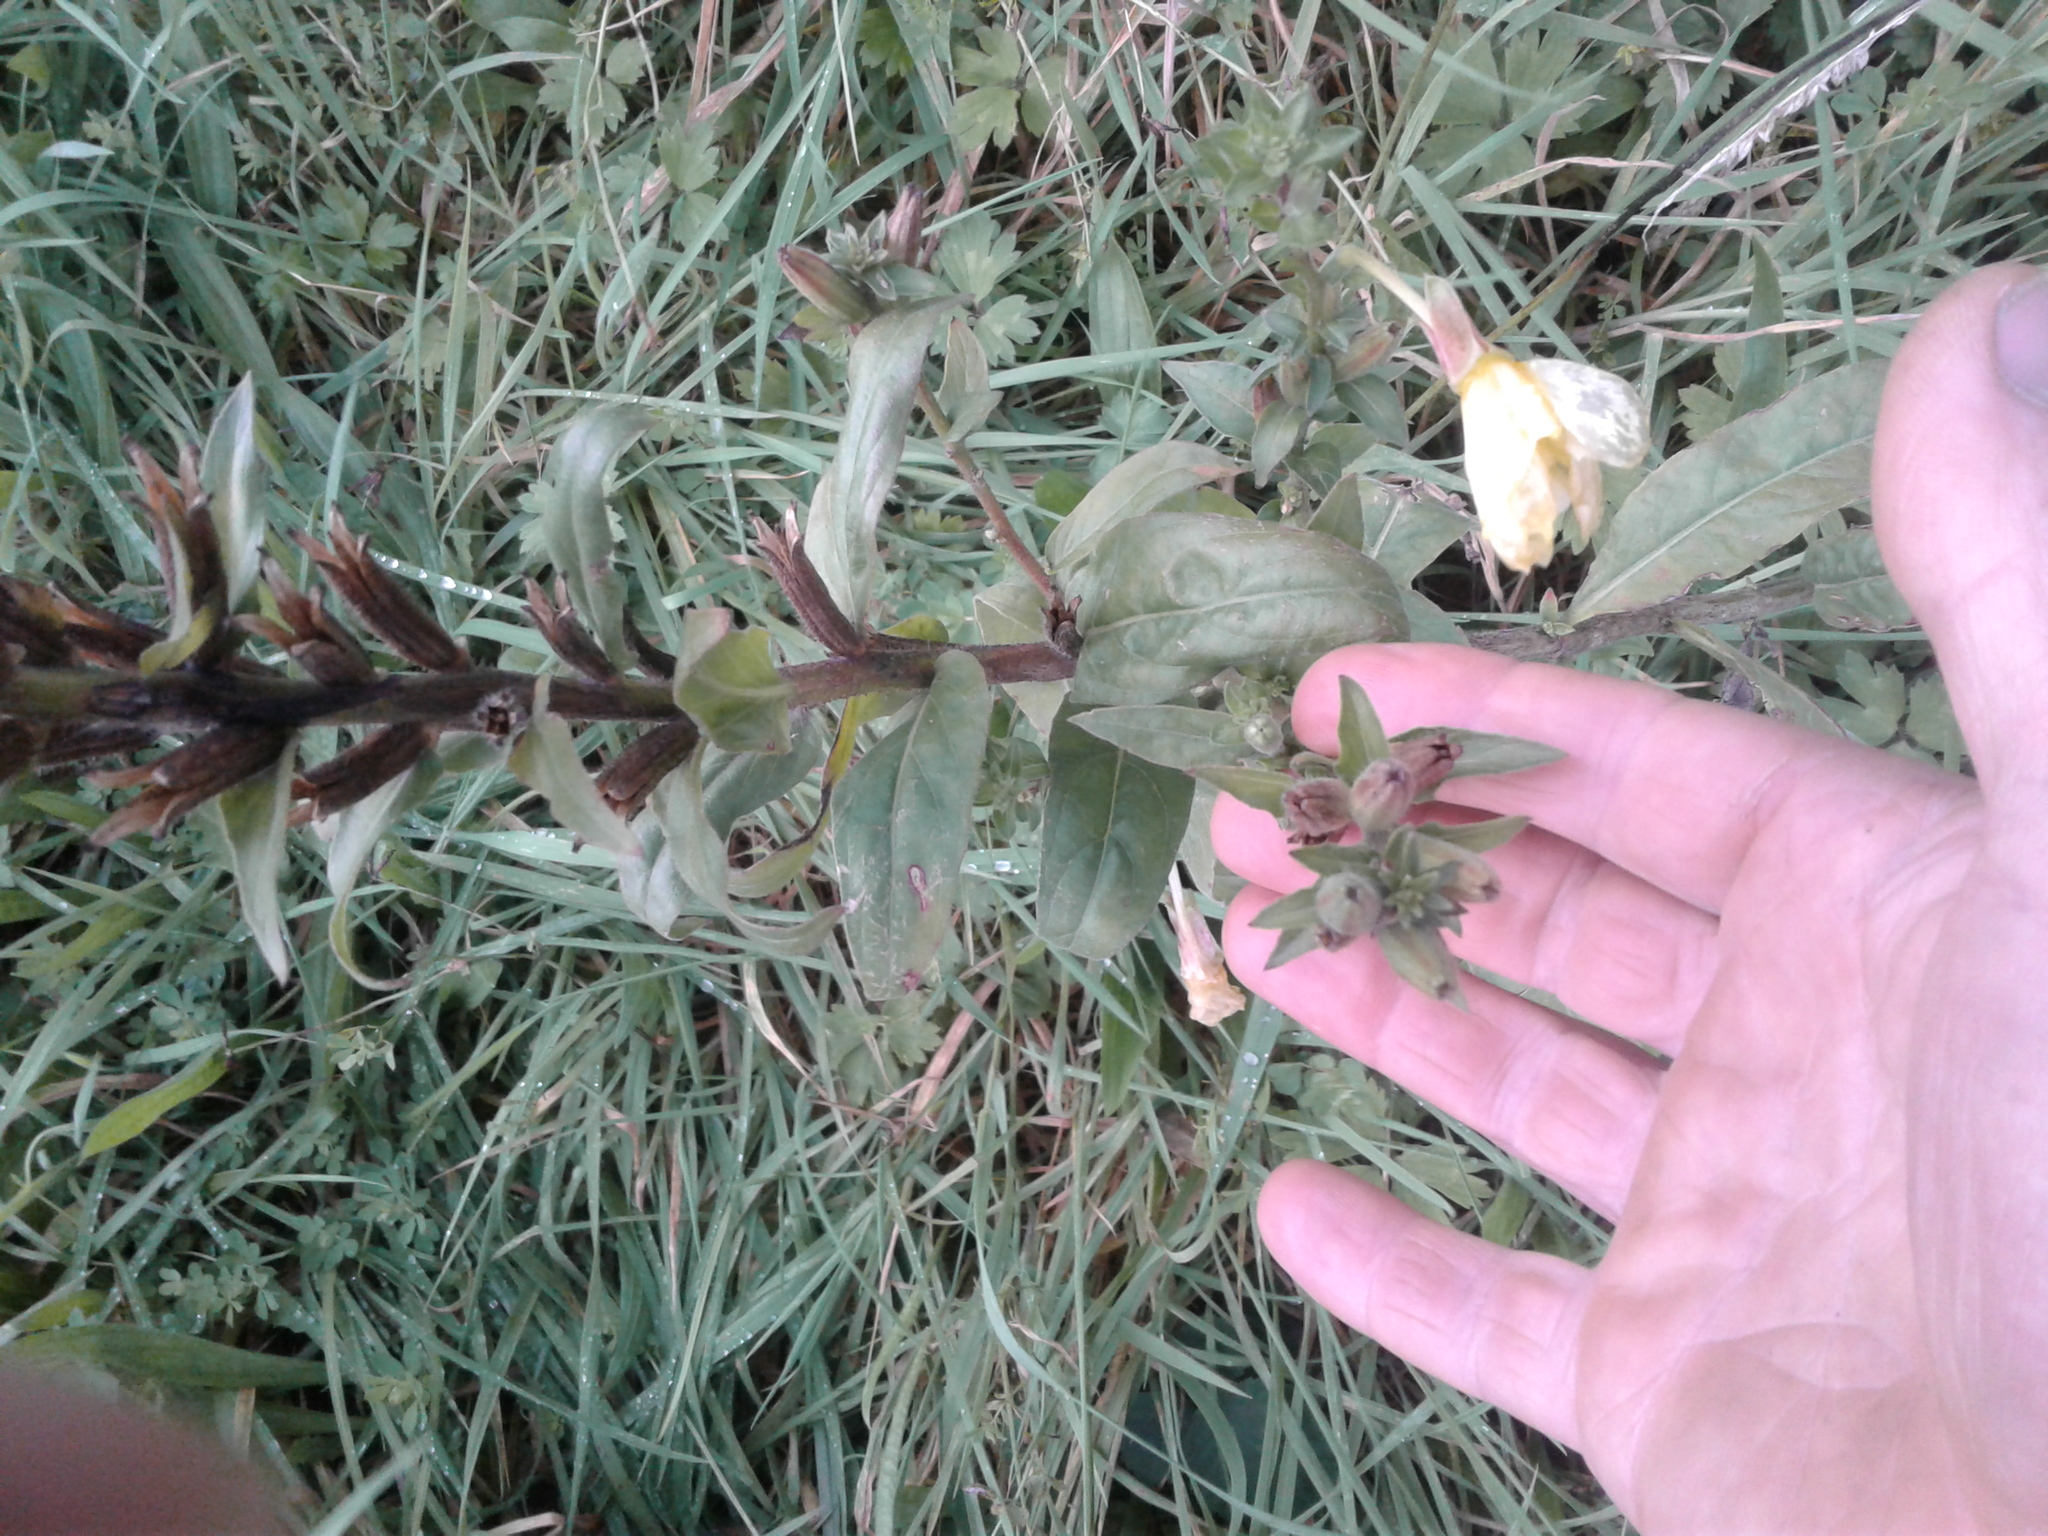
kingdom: Plantae
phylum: Tracheophyta
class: Magnoliopsida
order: Myrtales
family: Onagraceae
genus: Oenothera
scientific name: Oenothera biennis
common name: Common evening-primrose
